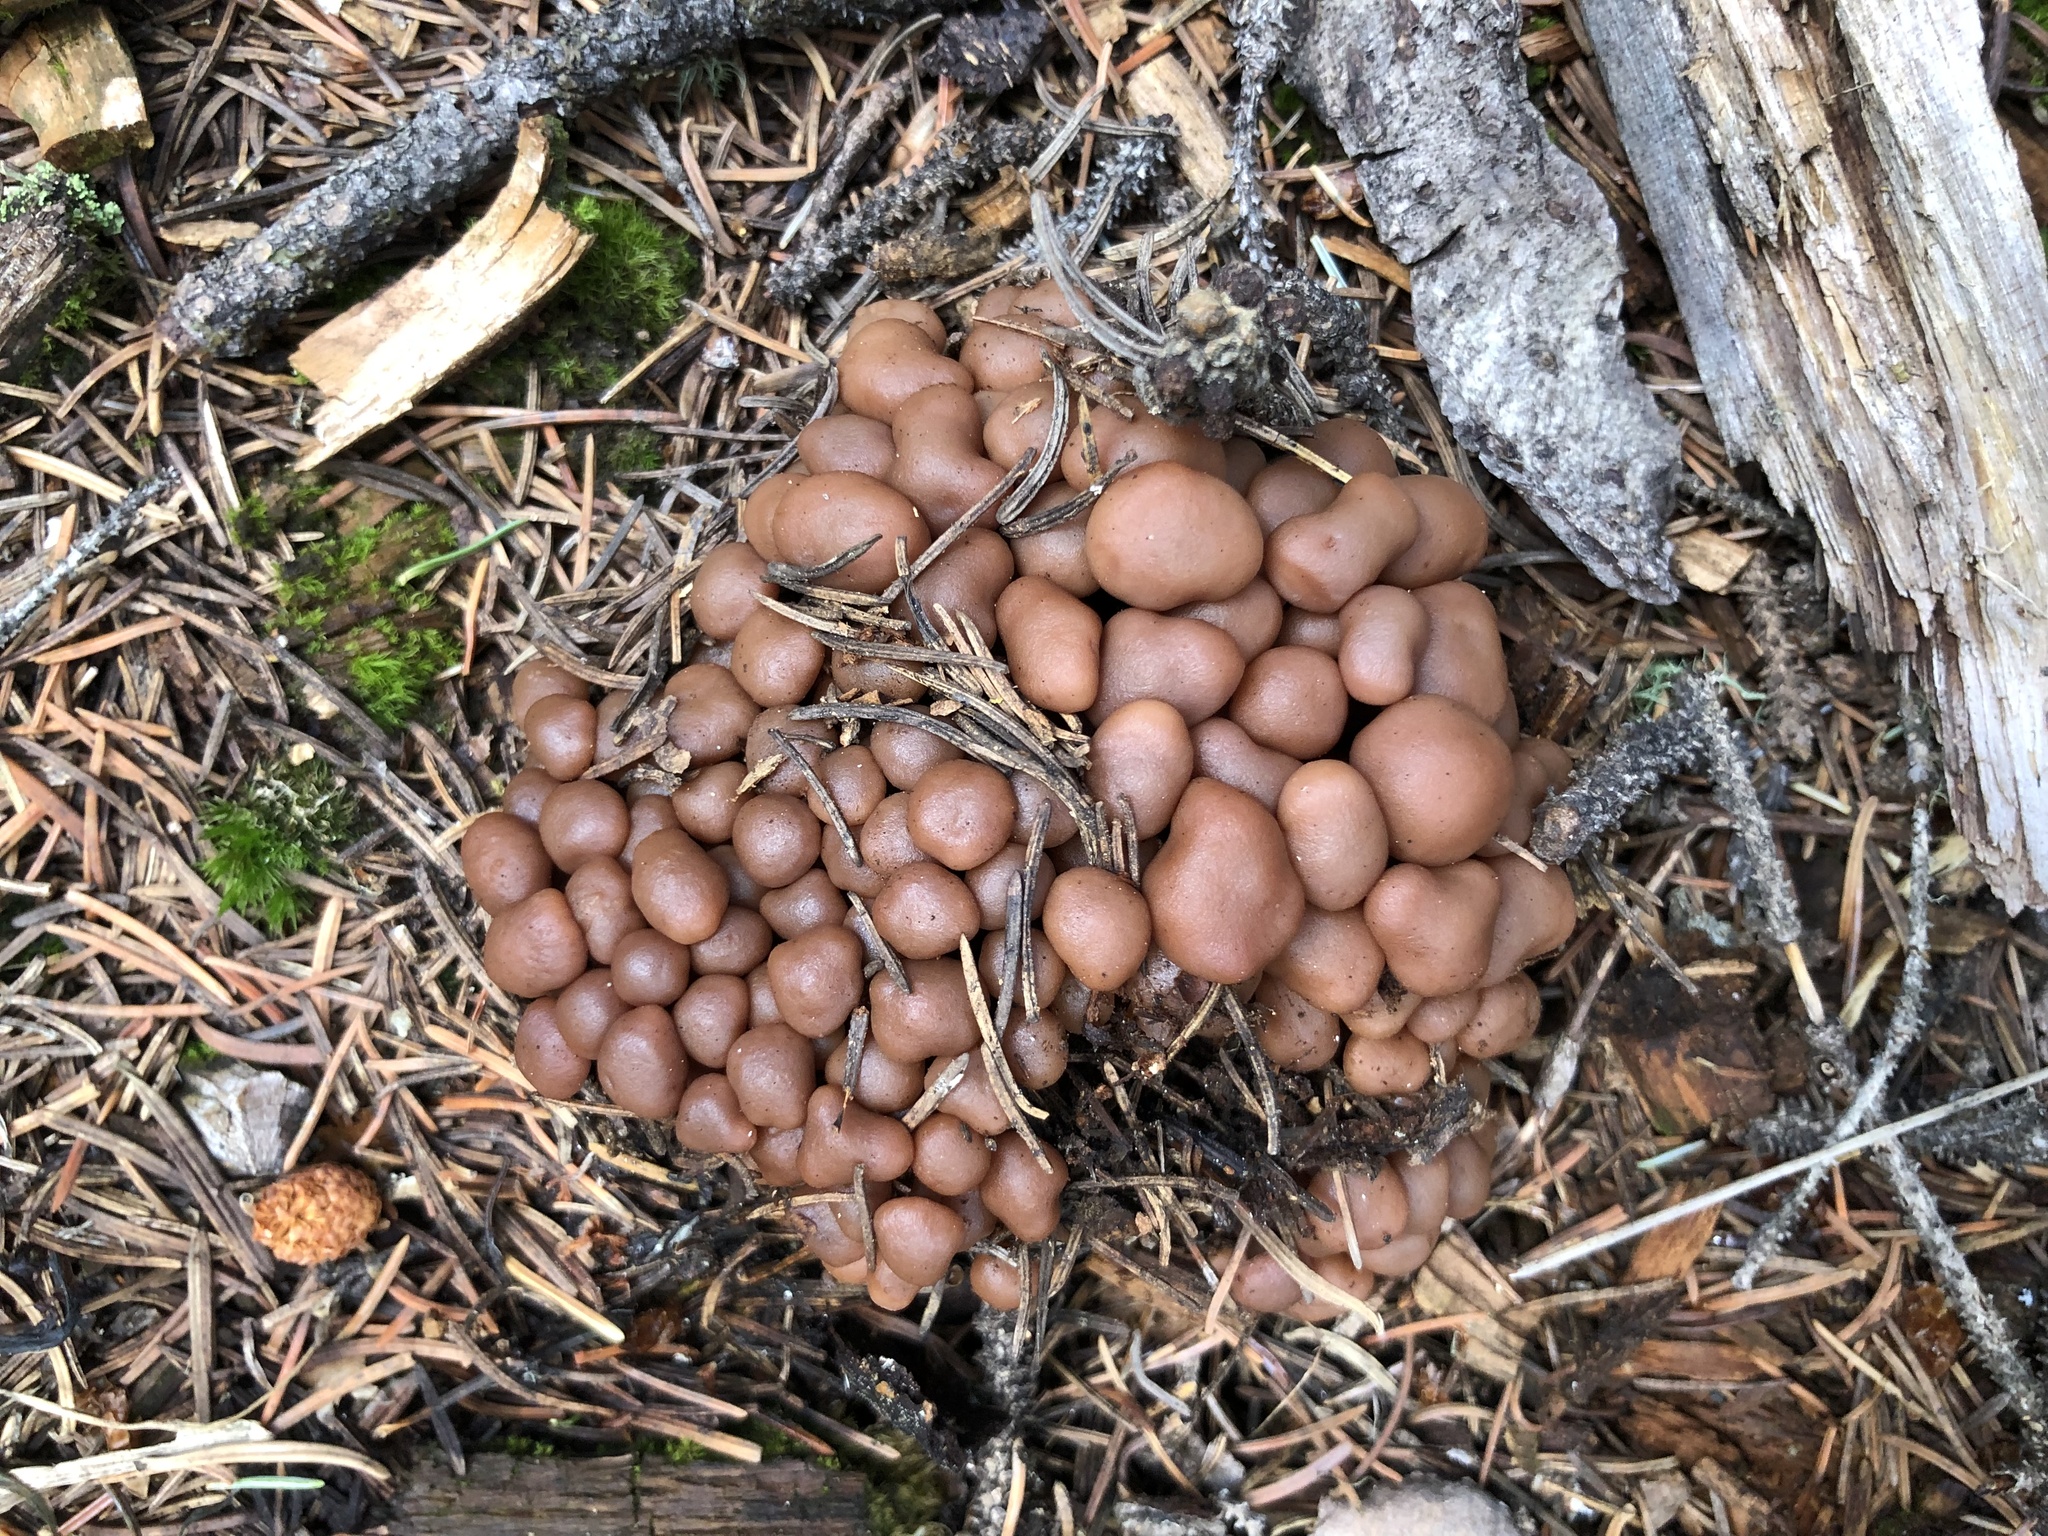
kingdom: Fungi
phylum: Basidiomycota
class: Agaricomycetes
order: Agaricales
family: Omphalotaceae
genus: Connopus
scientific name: Connopus acervatus
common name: Cluster cap
